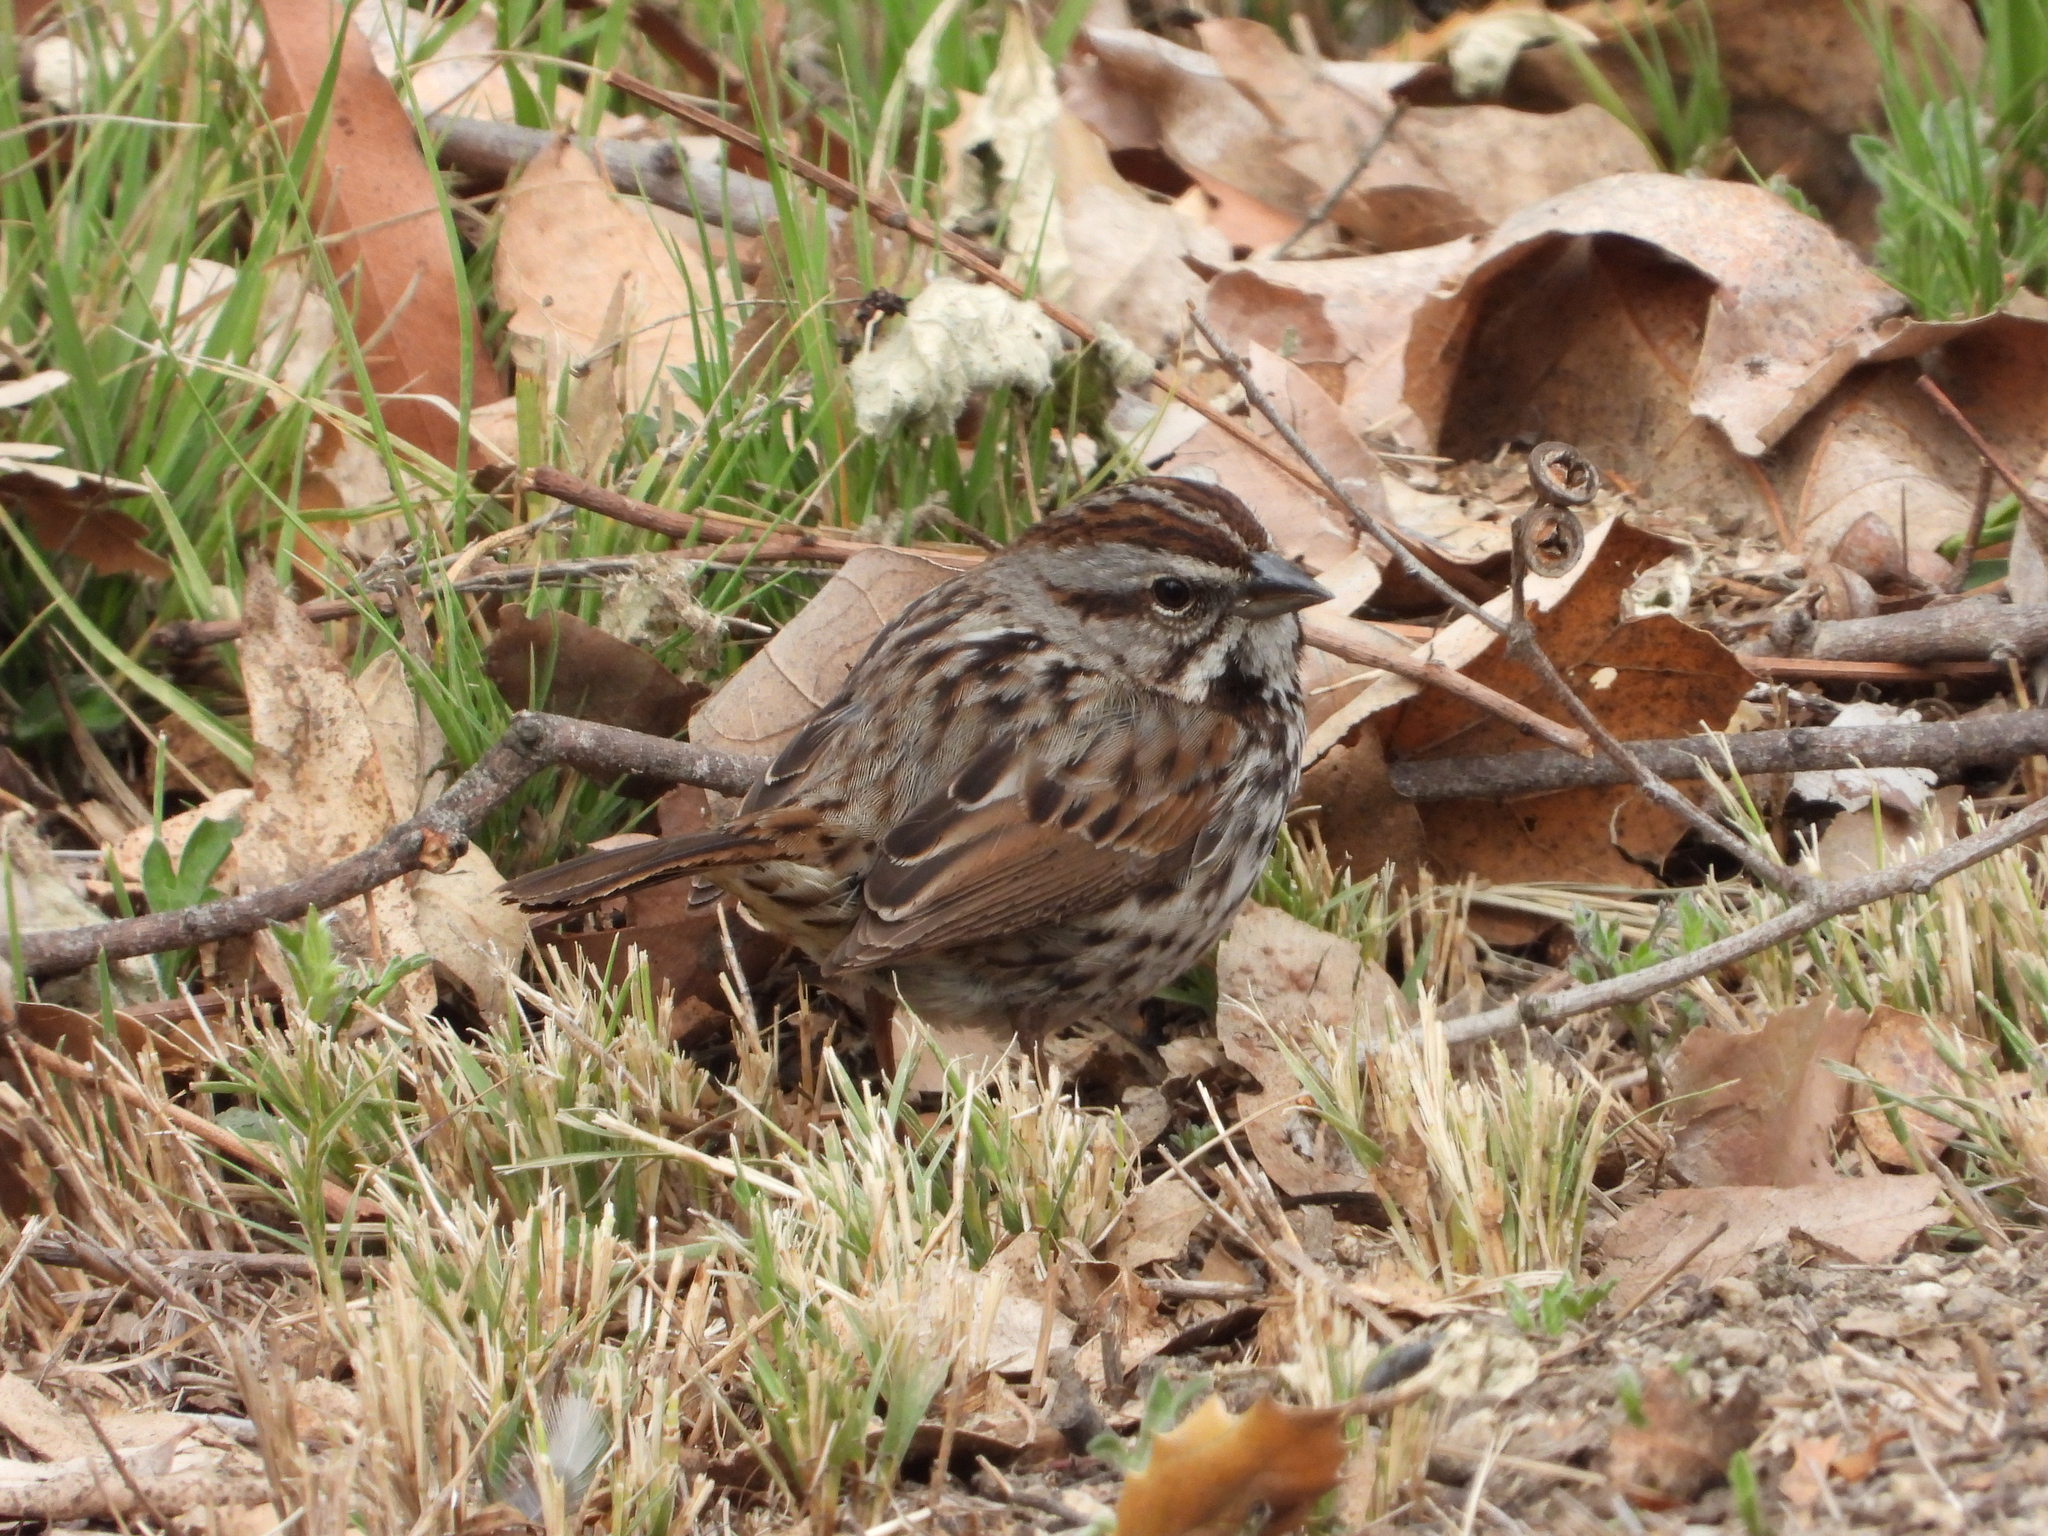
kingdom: Animalia
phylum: Chordata
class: Aves
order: Passeriformes
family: Passerellidae
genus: Melospiza
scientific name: Melospiza melodia
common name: Song sparrow
